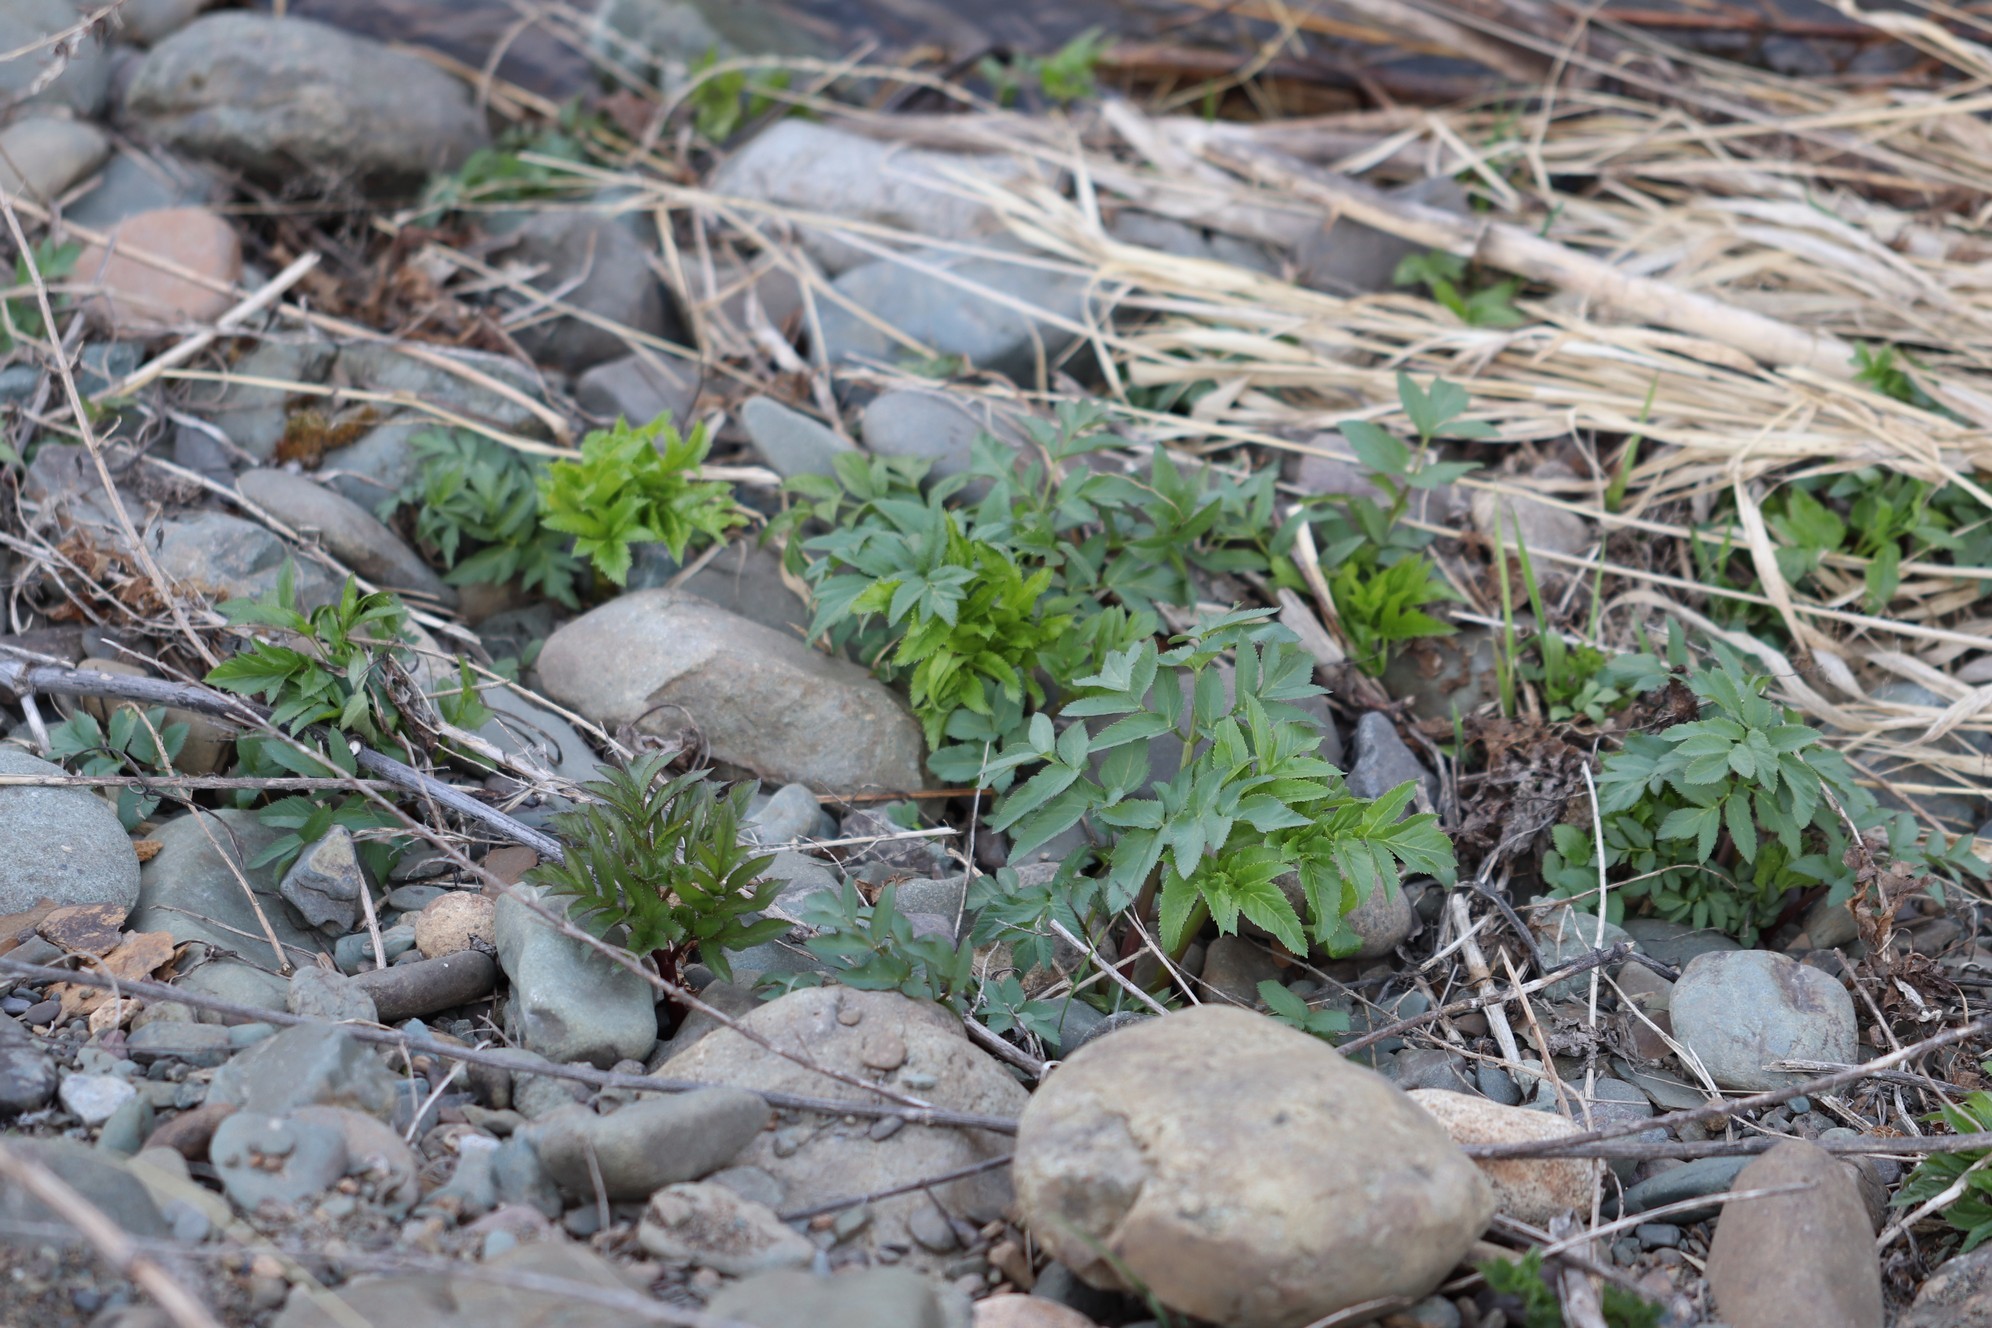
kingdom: Plantae
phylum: Tracheophyta
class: Magnoliopsida
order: Apiales
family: Apiaceae
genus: Angelica
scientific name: Angelica decurrens
